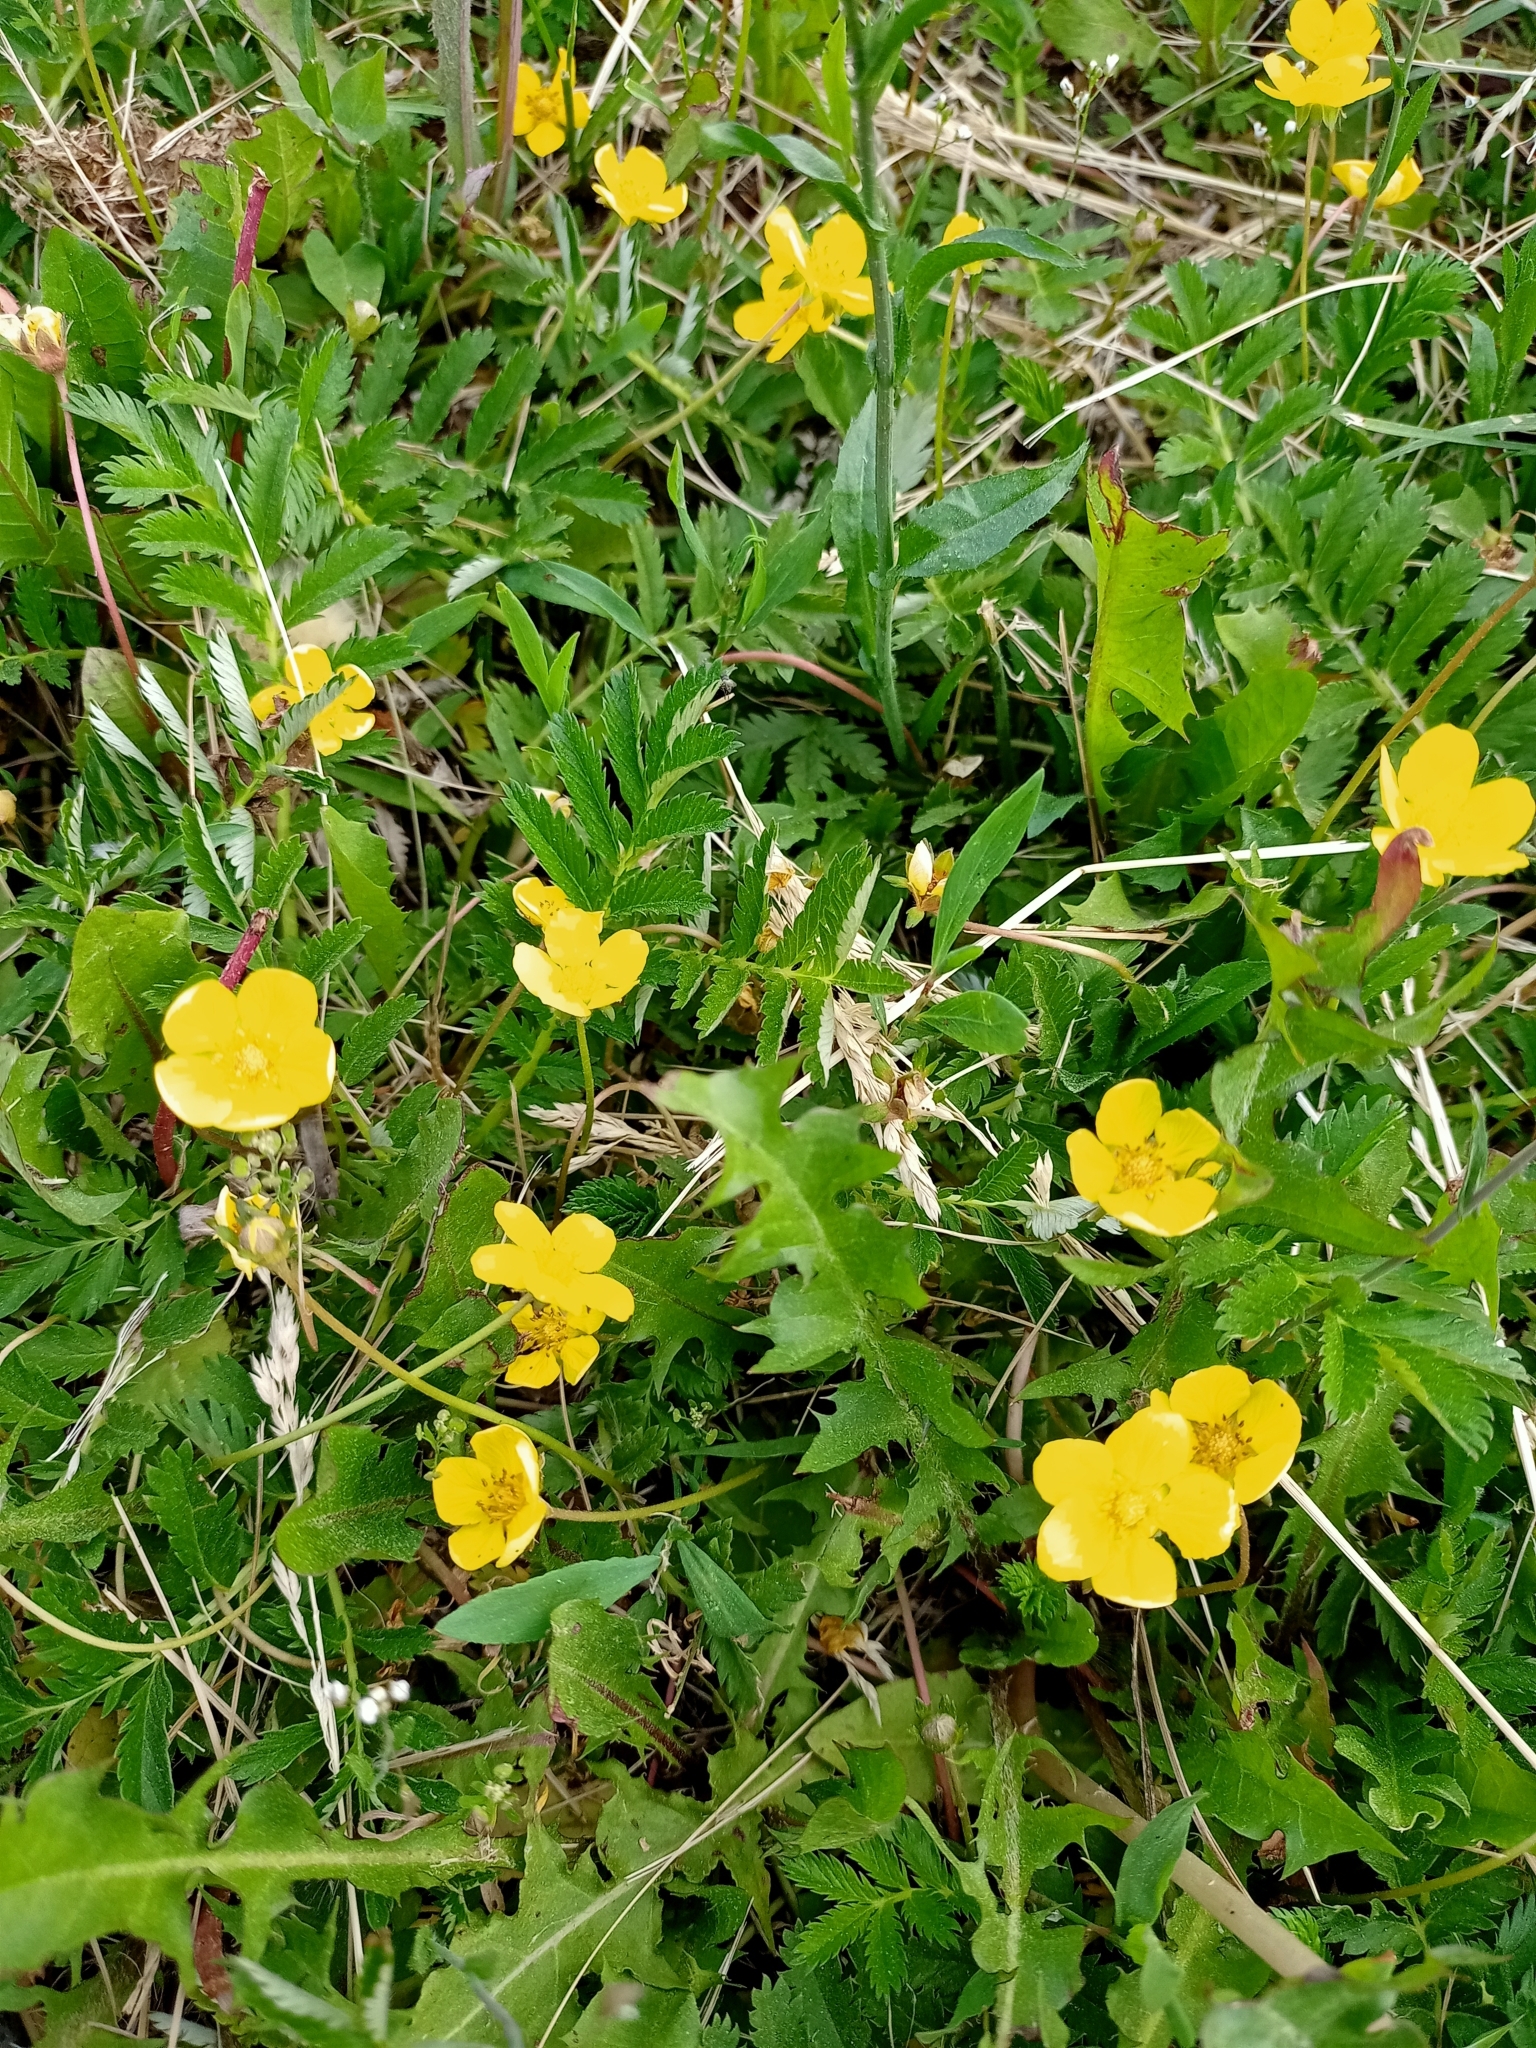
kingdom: Plantae
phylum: Tracheophyta
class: Magnoliopsida
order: Rosales
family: Rosaceae
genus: Argentina
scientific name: Argentina anserina
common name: Common silverweed
